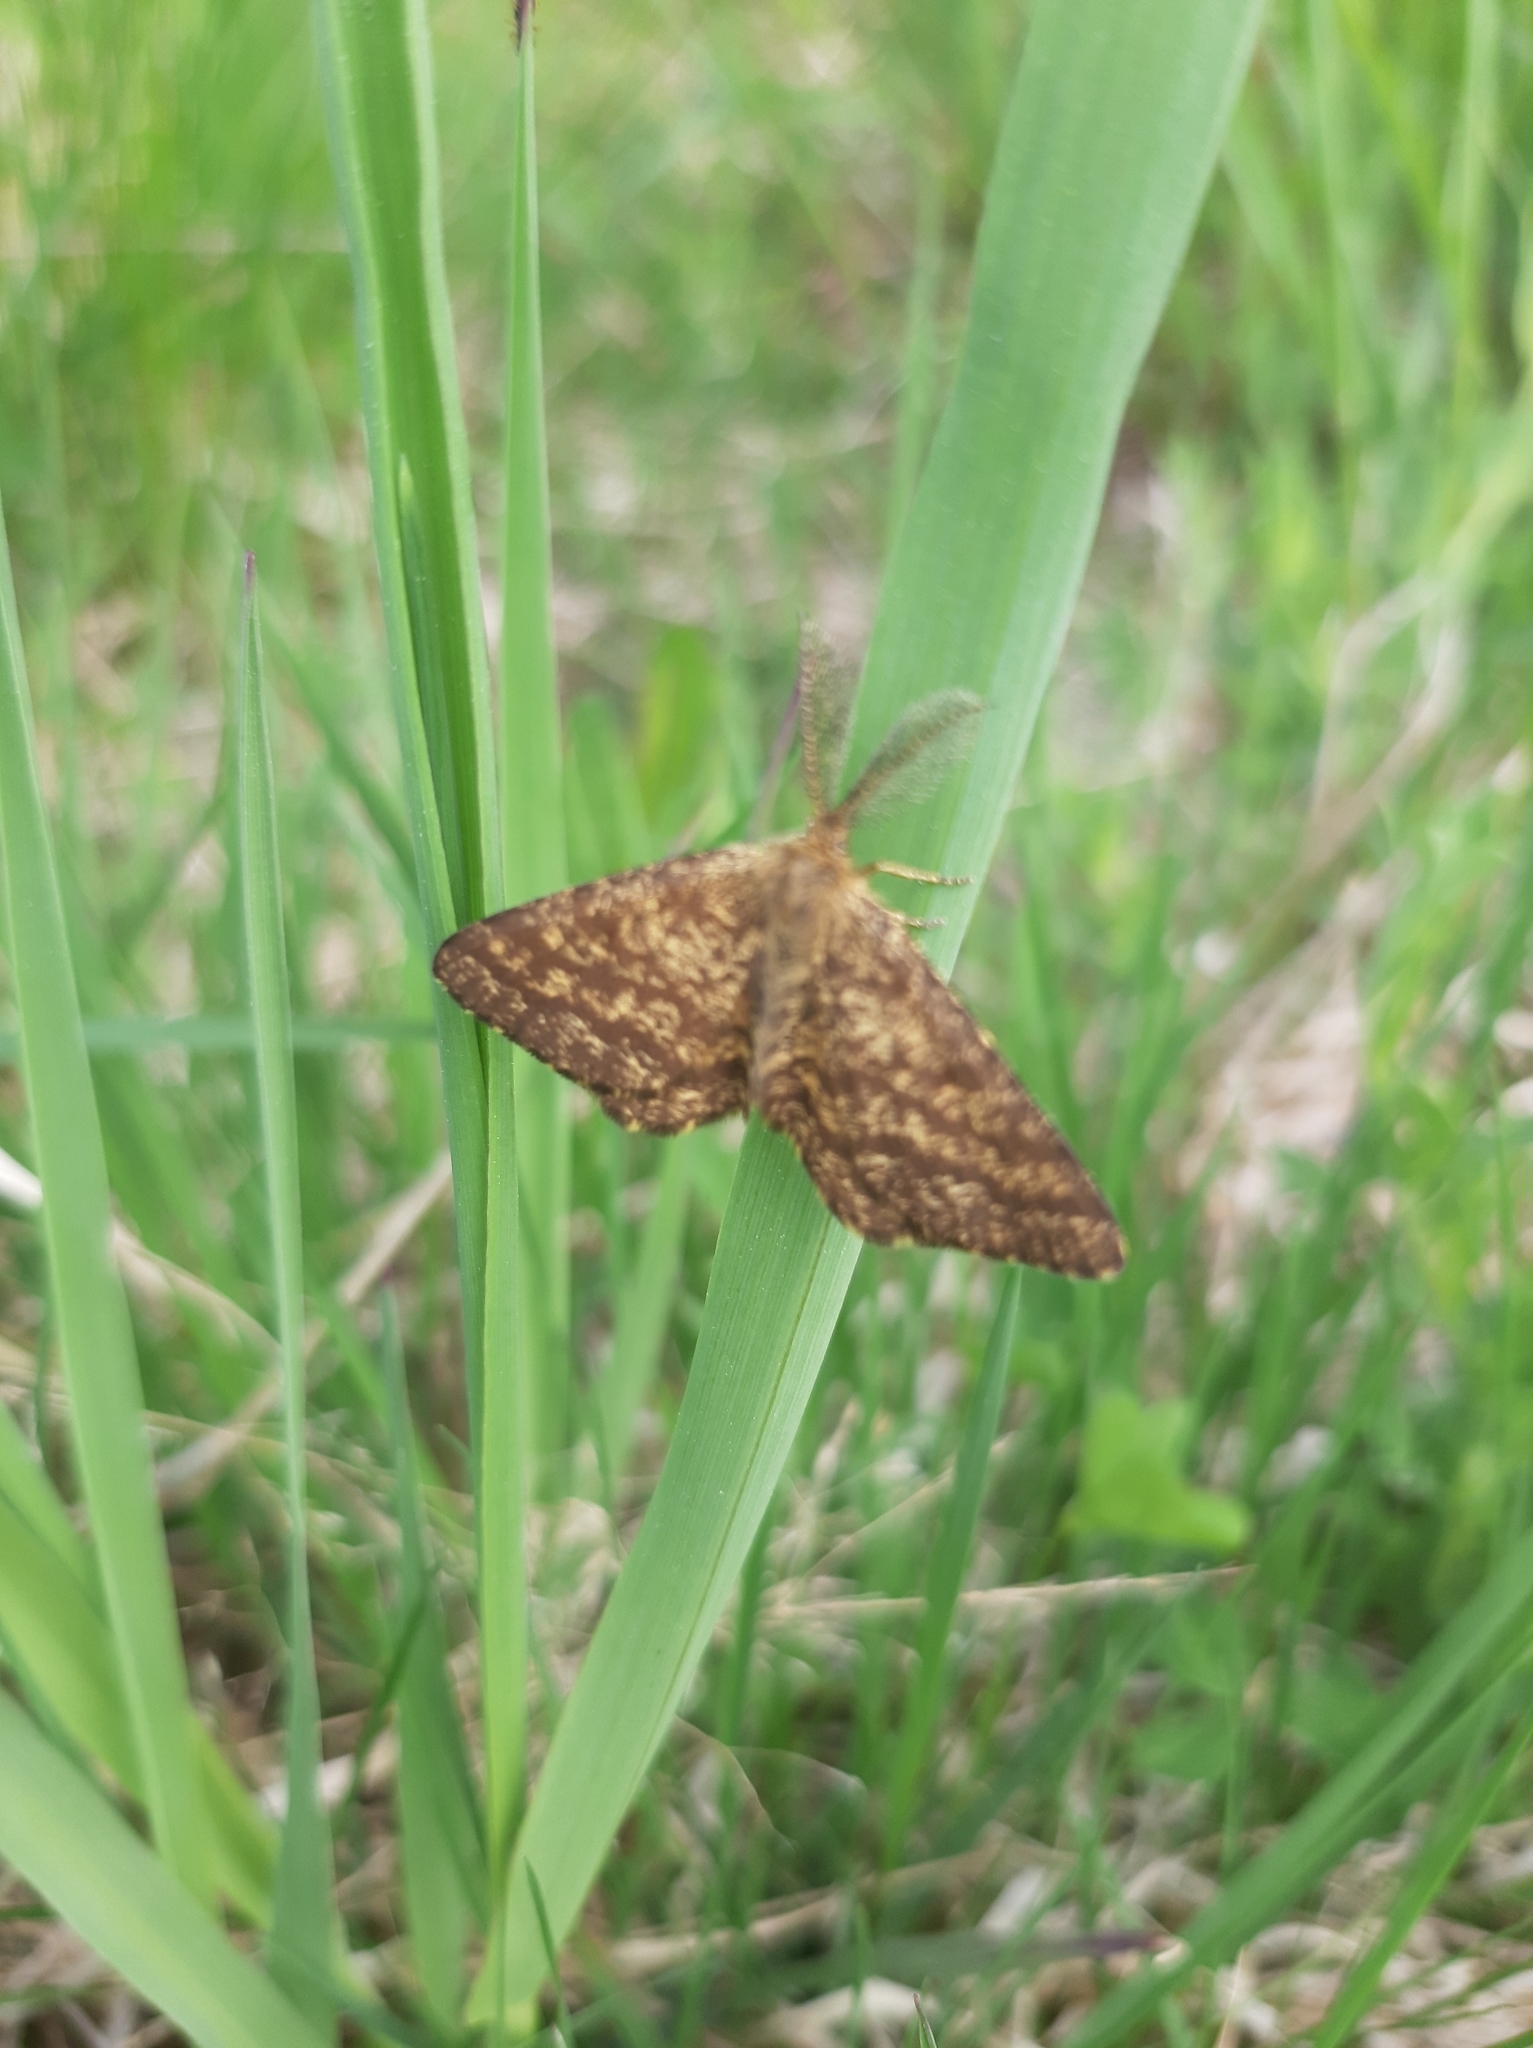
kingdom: Animalia
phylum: Arthropoda
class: Insecta
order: Lepidoptera
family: Geometridae
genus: Ematurga
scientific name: Ematurga atomaria
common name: Common heath
